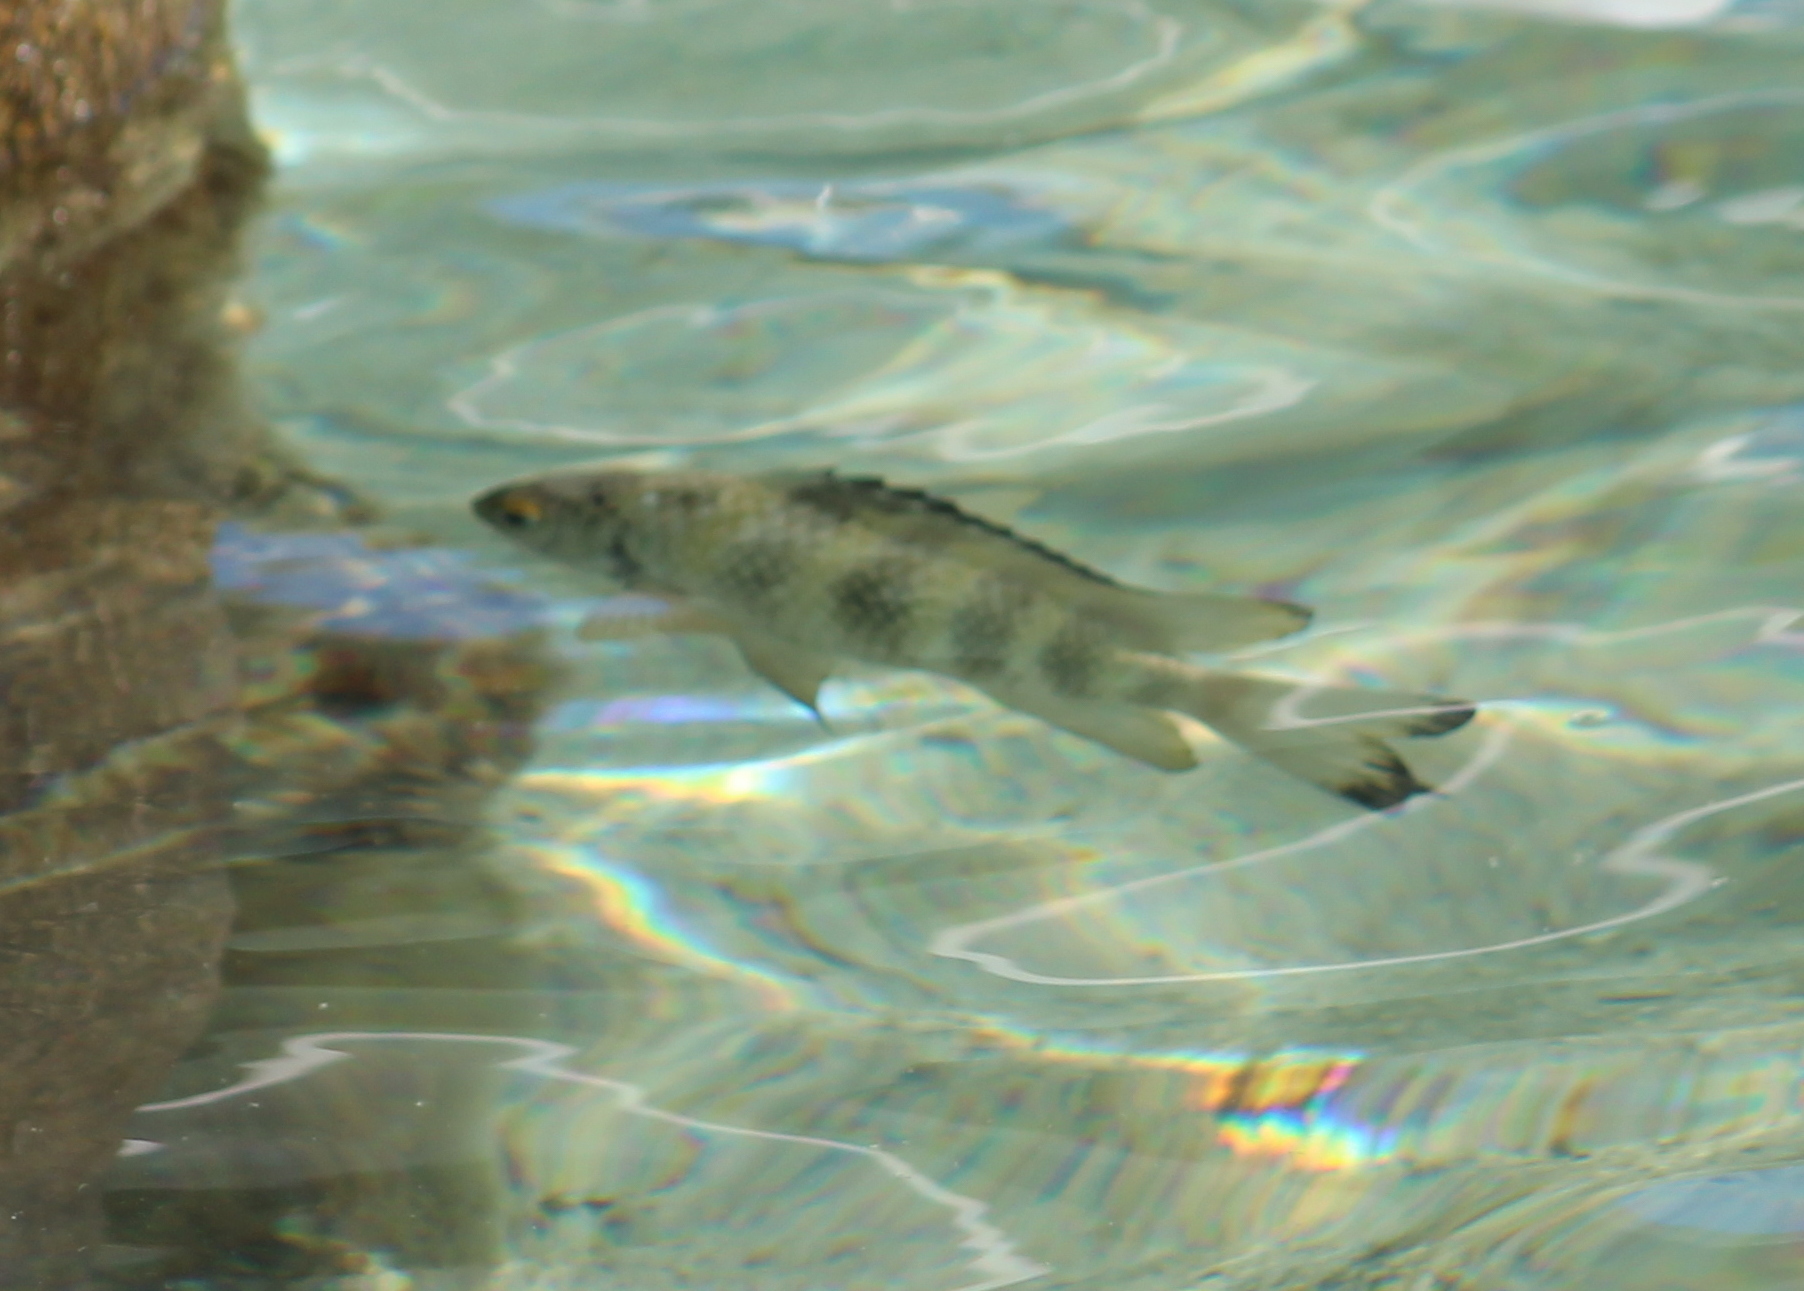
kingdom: Animalia
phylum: Chordata
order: Perciformes
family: Pomacentridae
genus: Abudefduf
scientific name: Abudefduf septemfasciatus
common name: Banded sergeant
